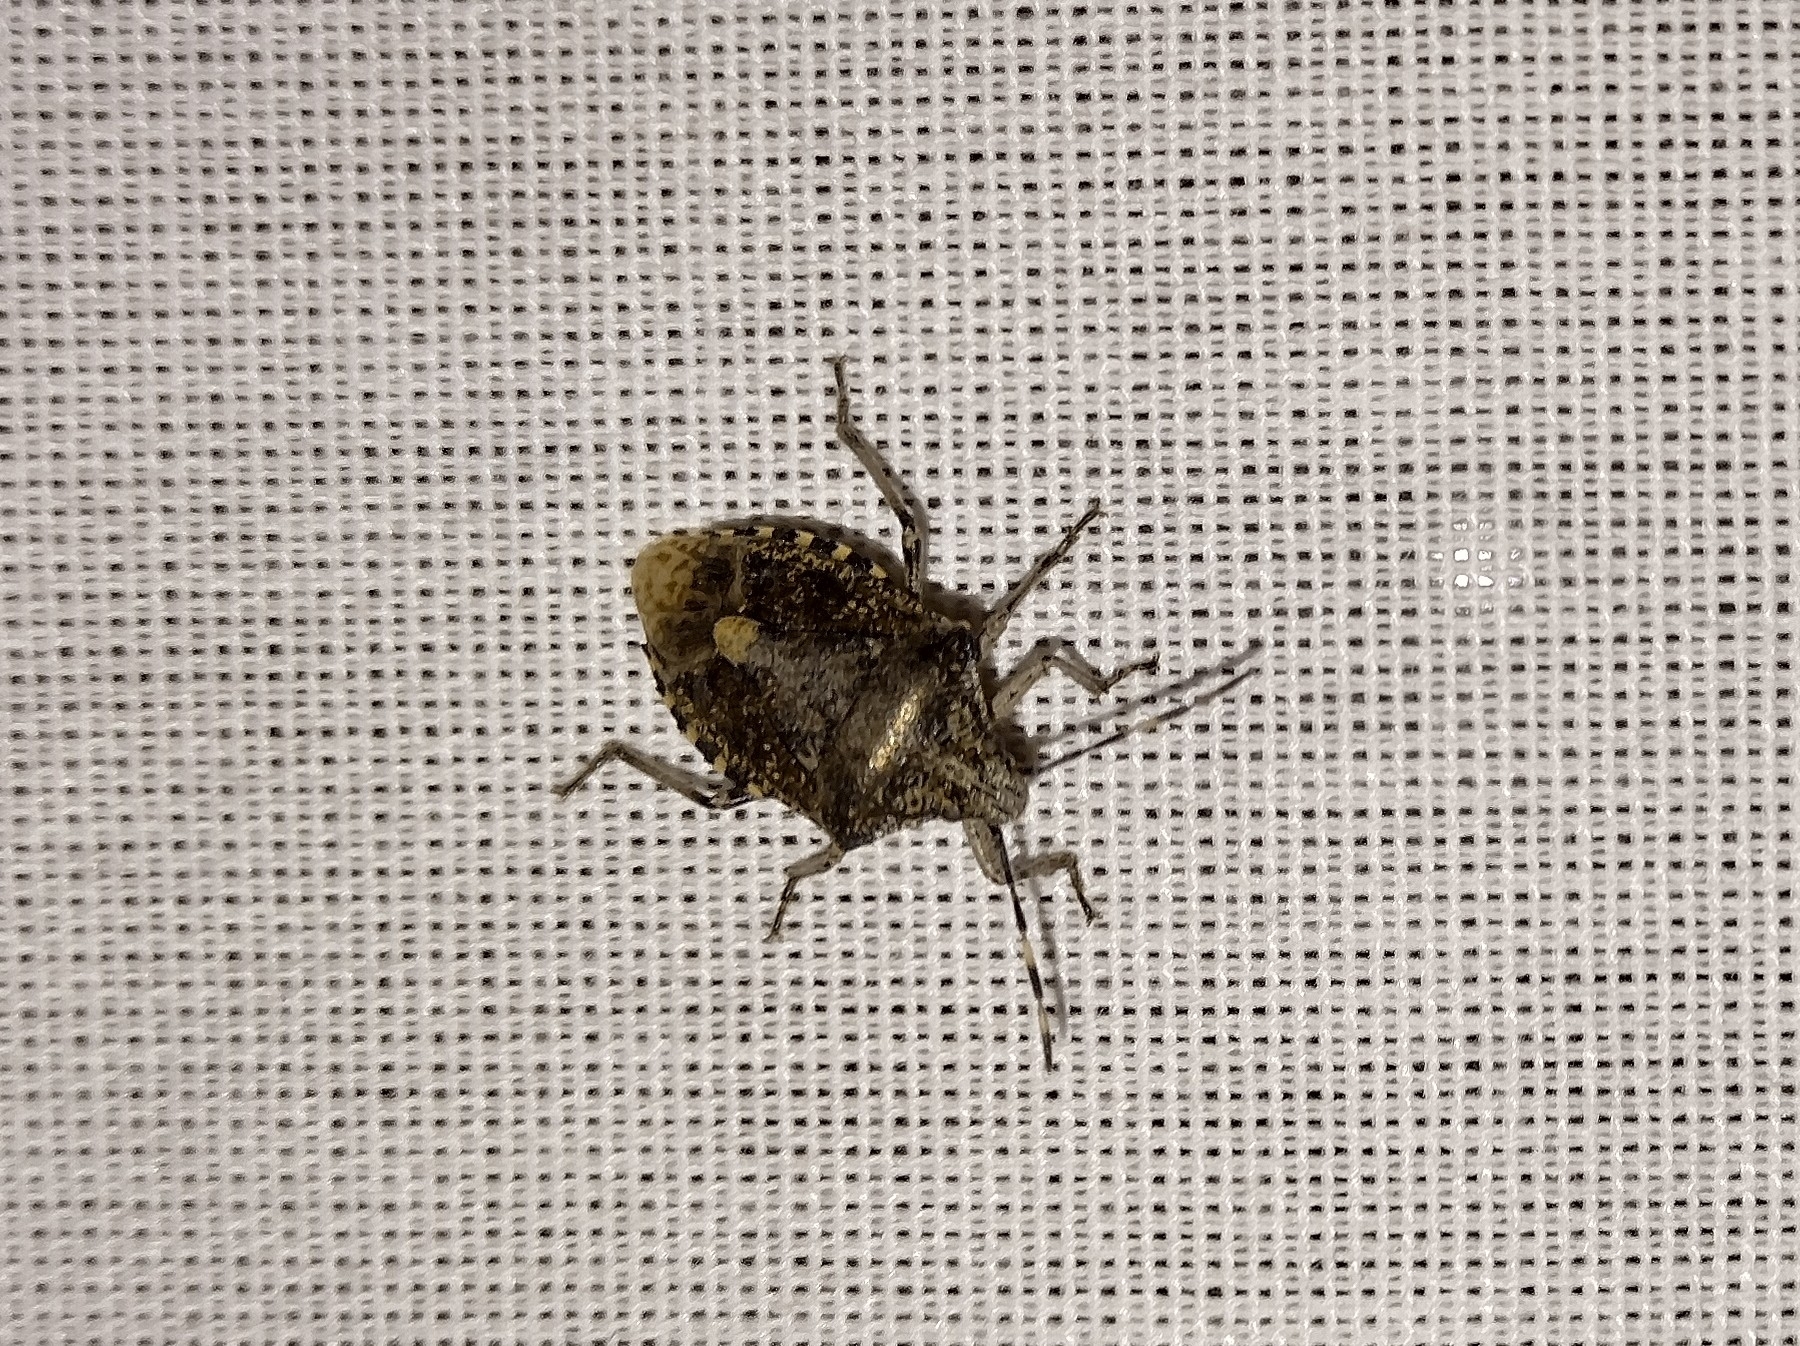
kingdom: Animalia
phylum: Arthropoda
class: Insecta
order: Hemiptera
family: Pentatomidae
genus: Rhaphigaster
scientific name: Rhaphigaster nebulosa
